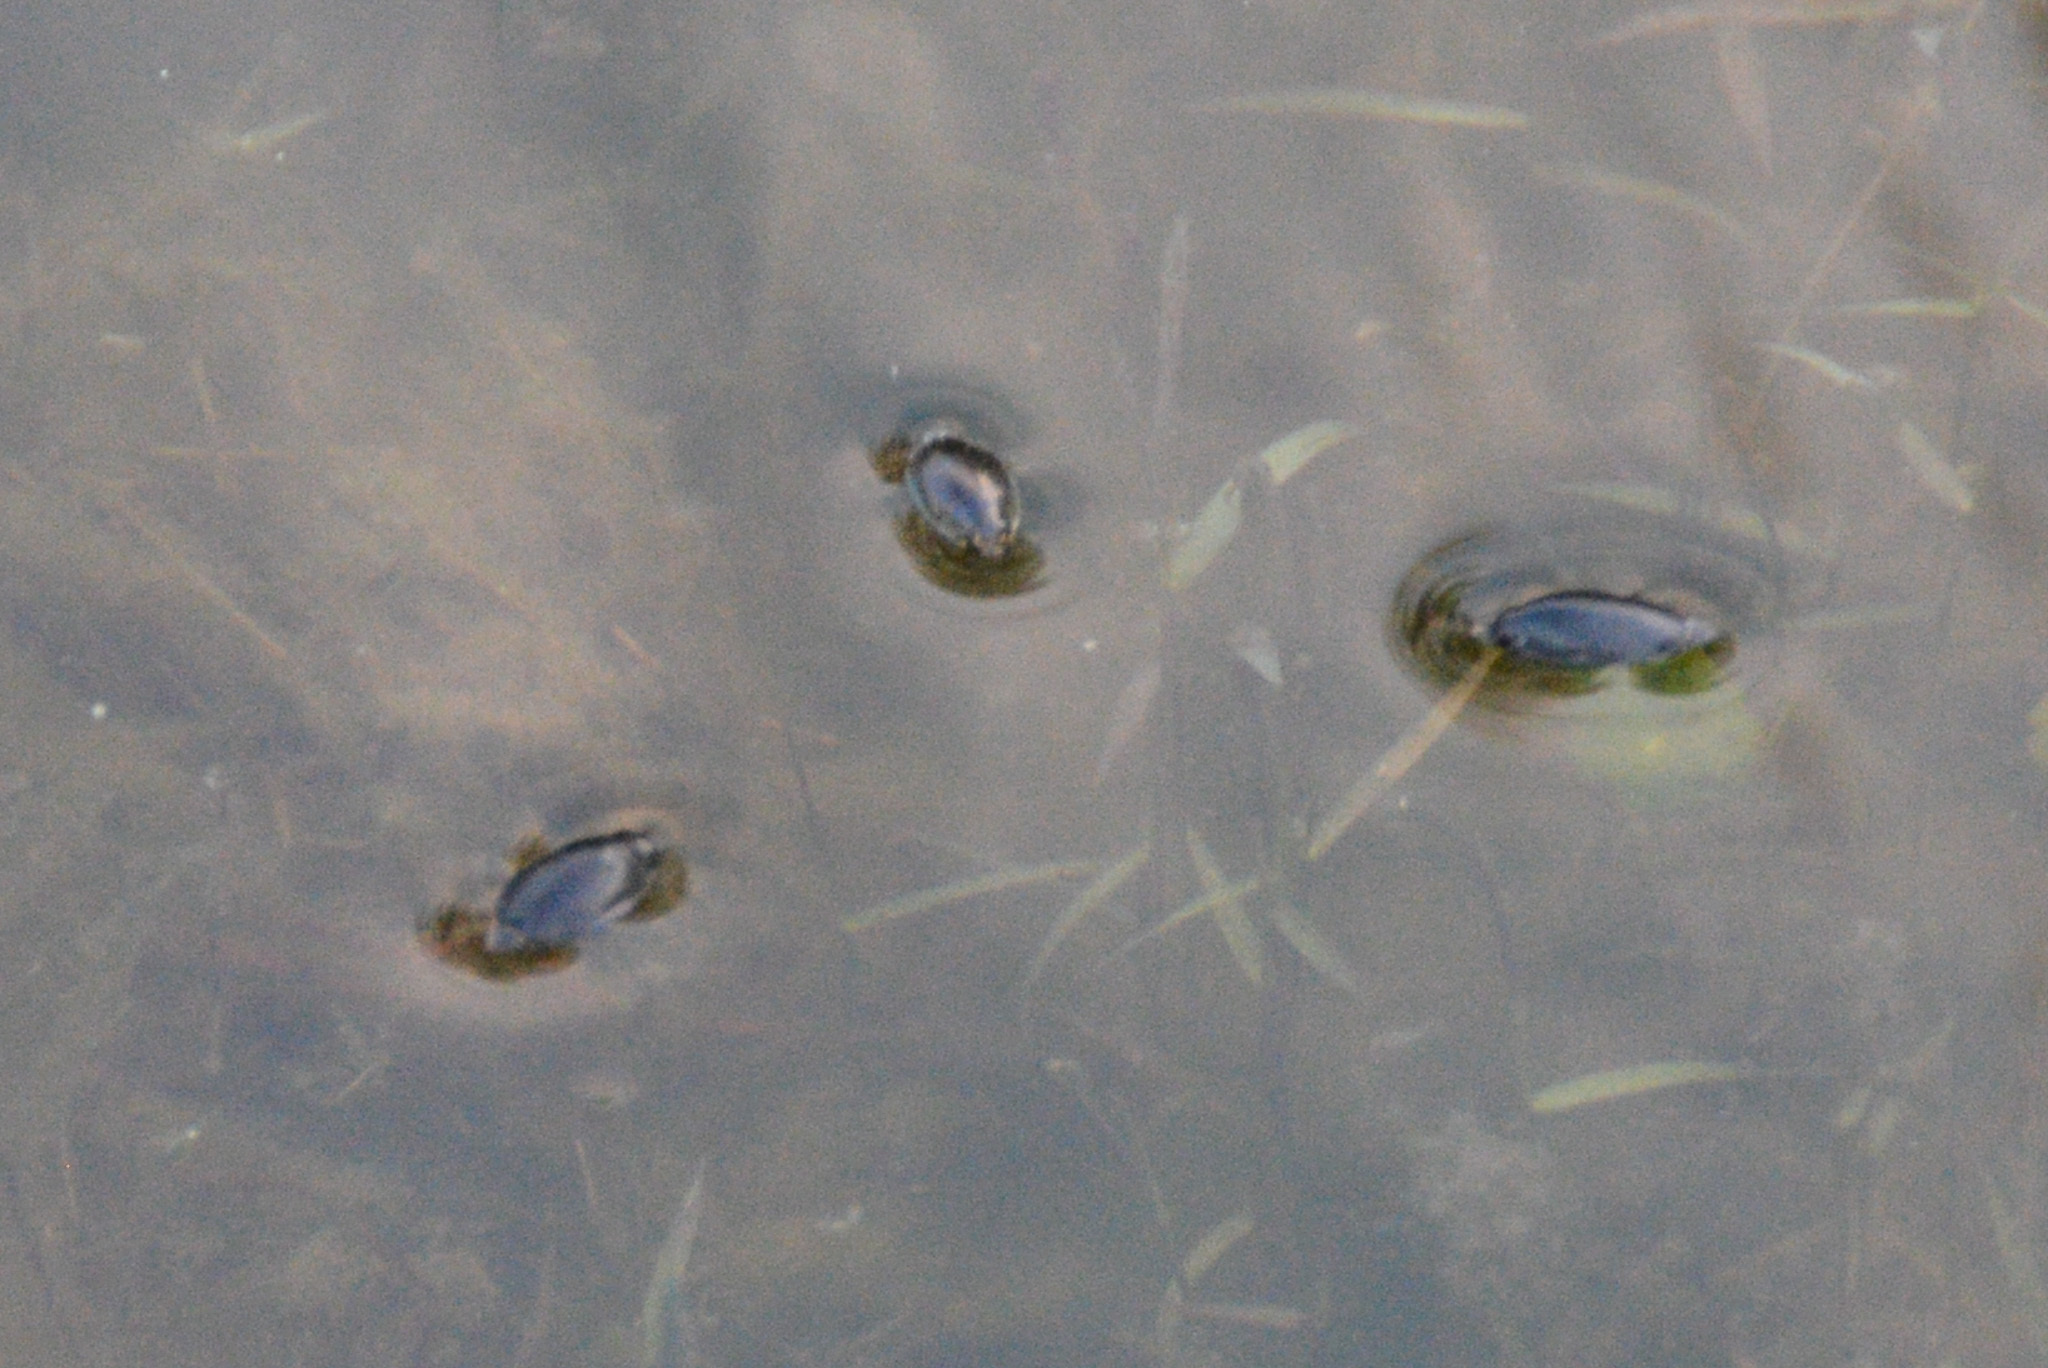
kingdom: Animalia
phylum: Arthropoda
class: Insecta
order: Coleoptera
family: Gyrinidae
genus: Dineutus
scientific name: Dineutus
